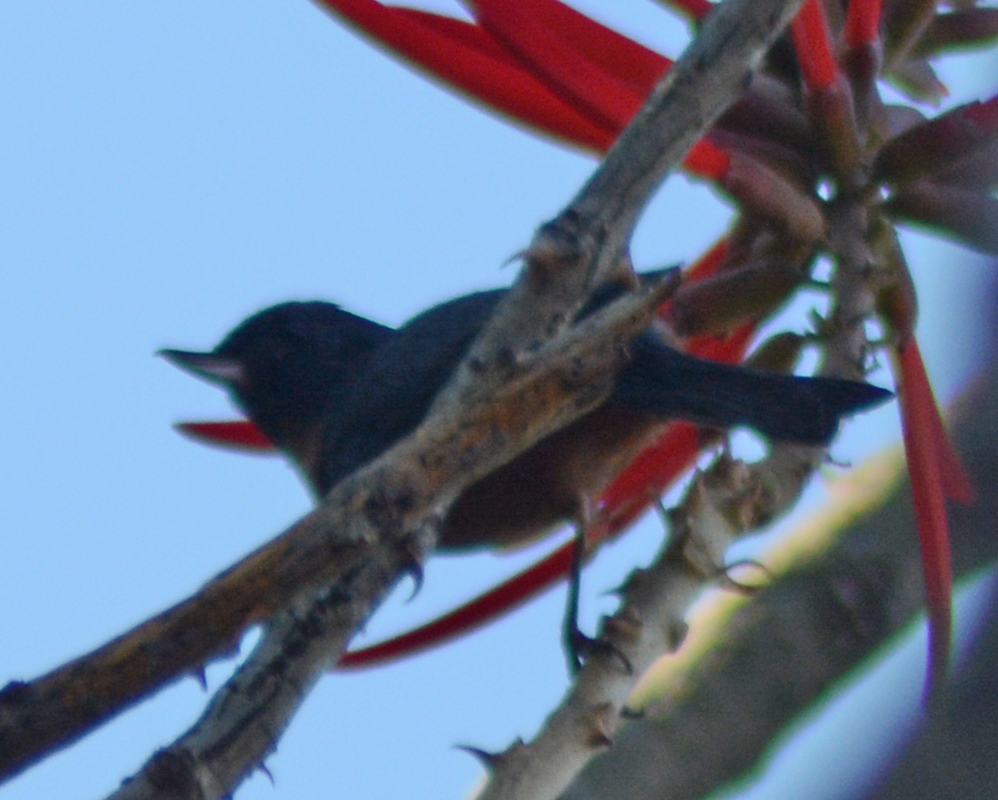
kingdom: Animalia
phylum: Chordata
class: Aves
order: Passeriformes
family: Thraupidae
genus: Diglossa
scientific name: Diglossa baritula
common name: Cinnamon-bellied flowerpiercer
